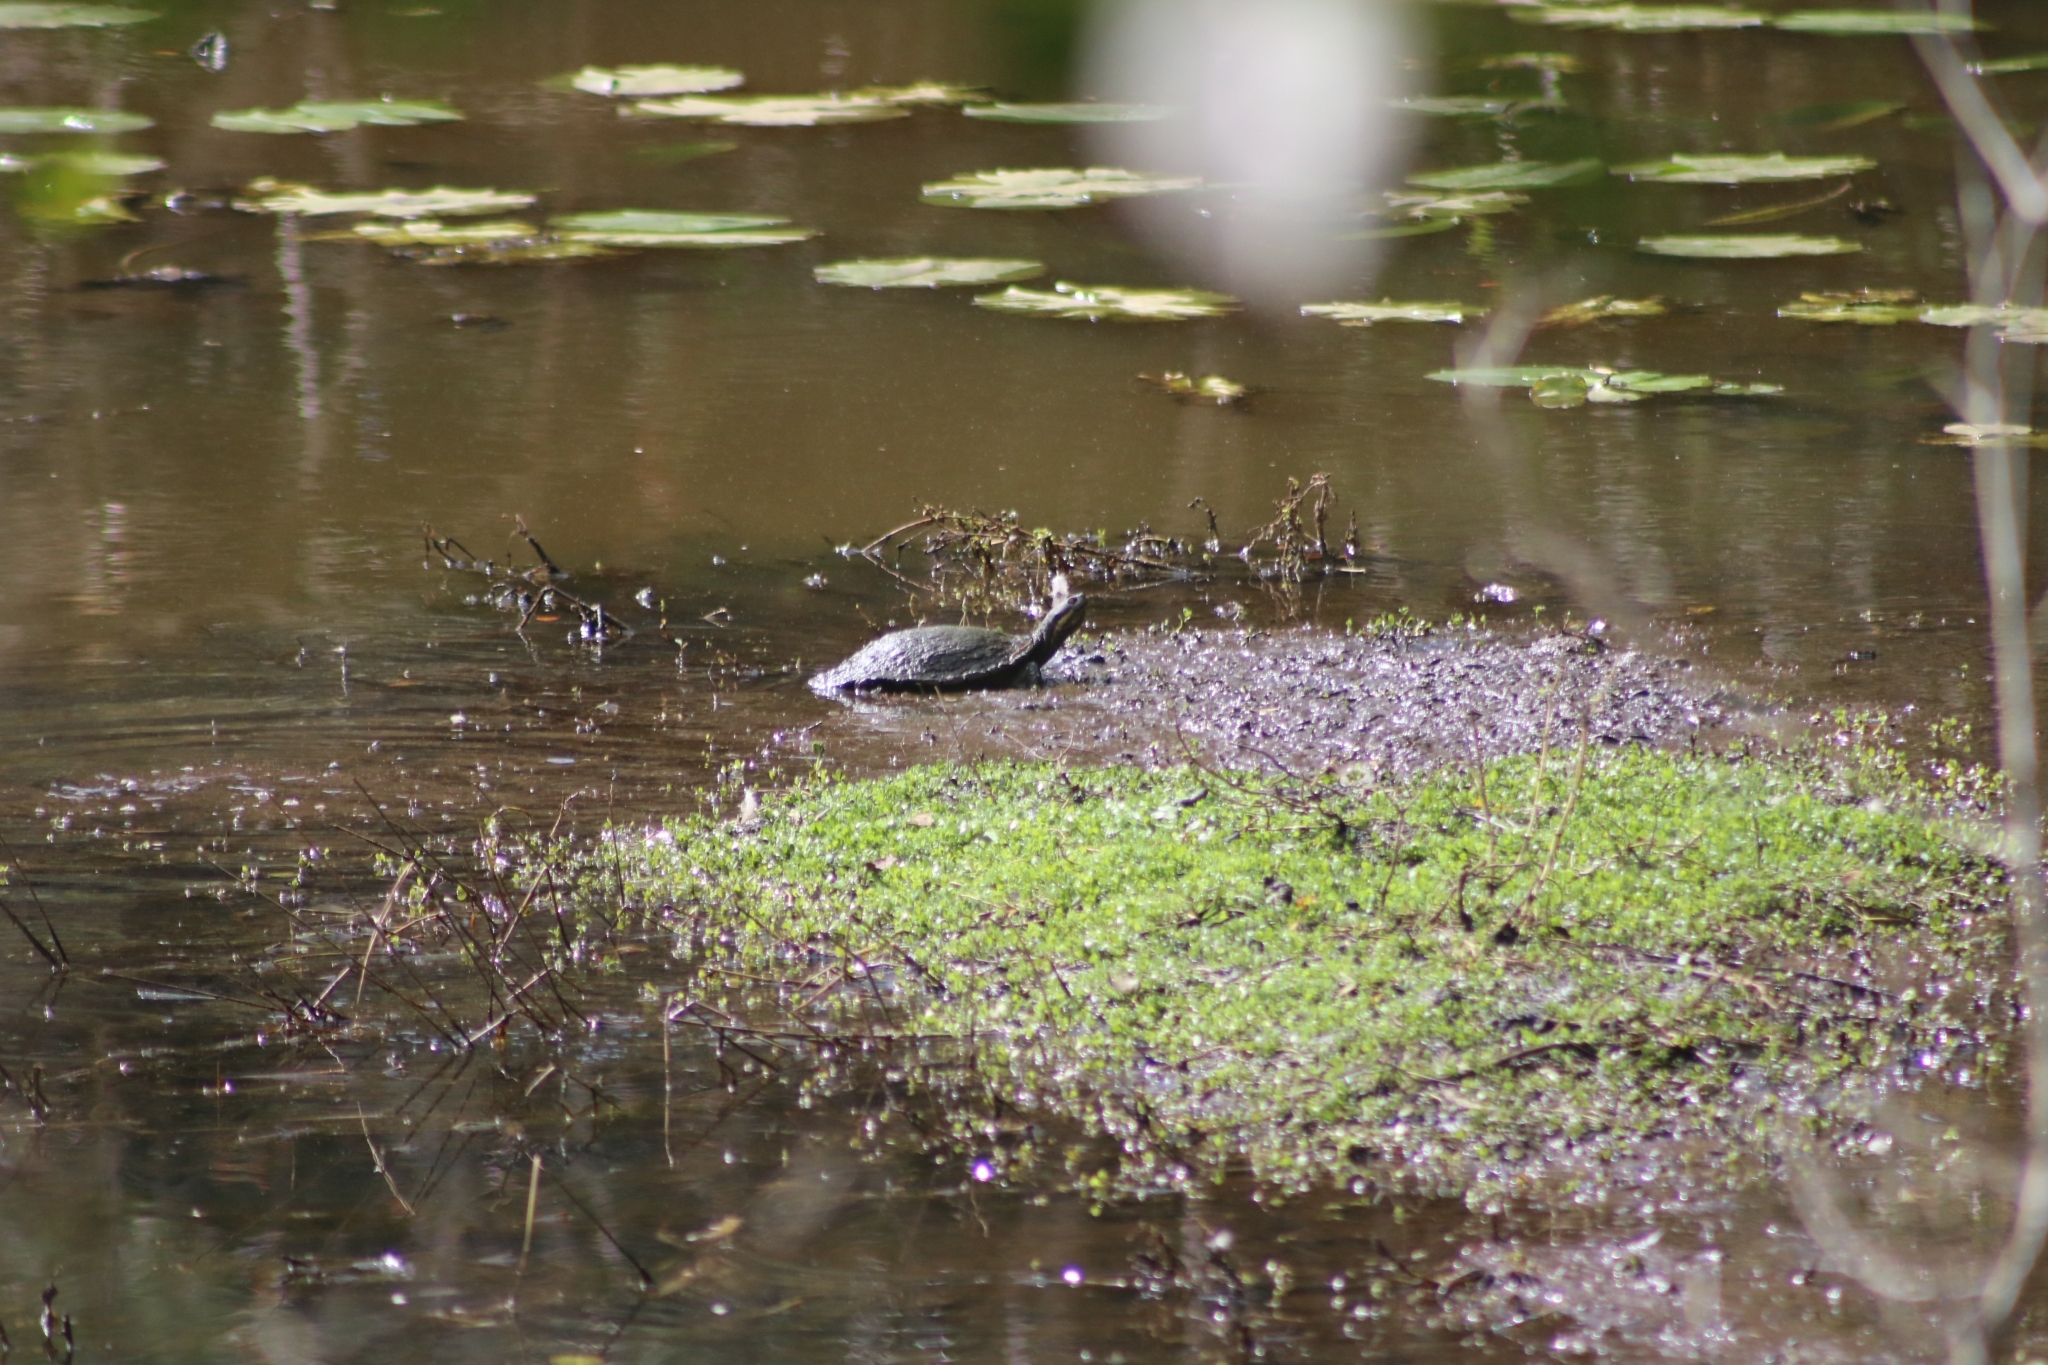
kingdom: Animalia
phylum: Chordata
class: Testudines
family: Chelidae
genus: Emydura
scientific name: Emydura macquarii
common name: Murray river turtle
